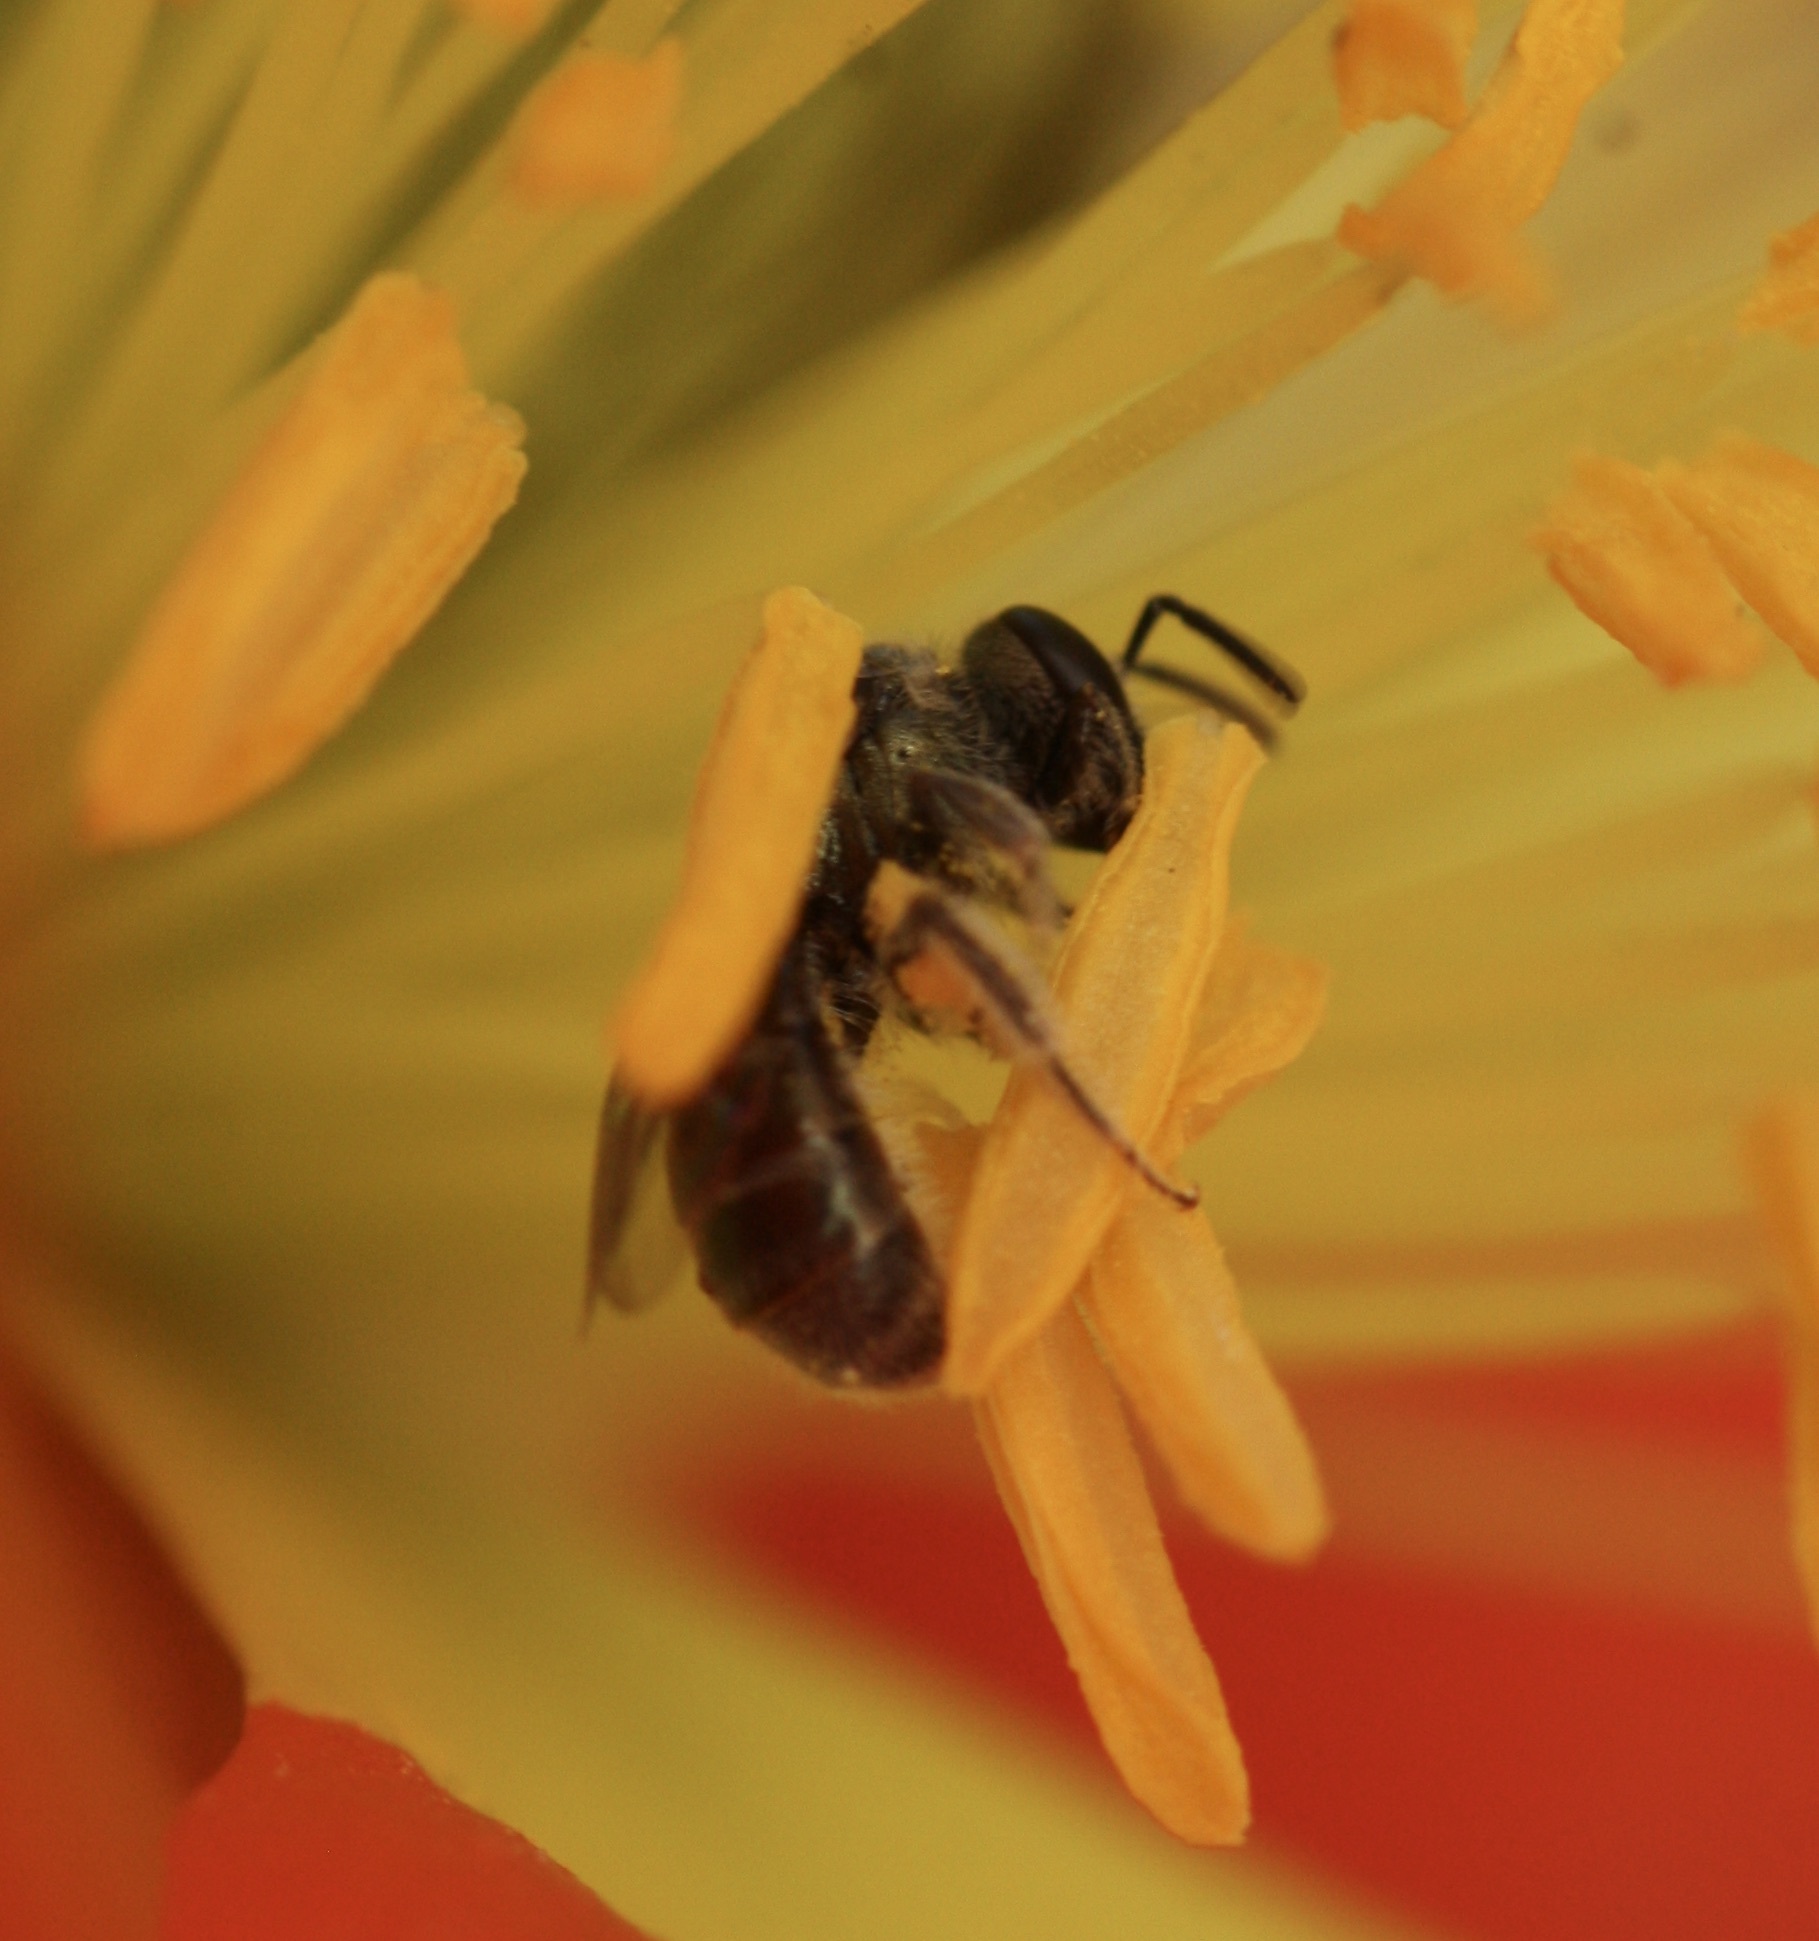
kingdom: Animalia
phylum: Arthropoda
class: Insecta
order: Hymenoptera
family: Halictidae
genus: Dialictus
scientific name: Dialictus
